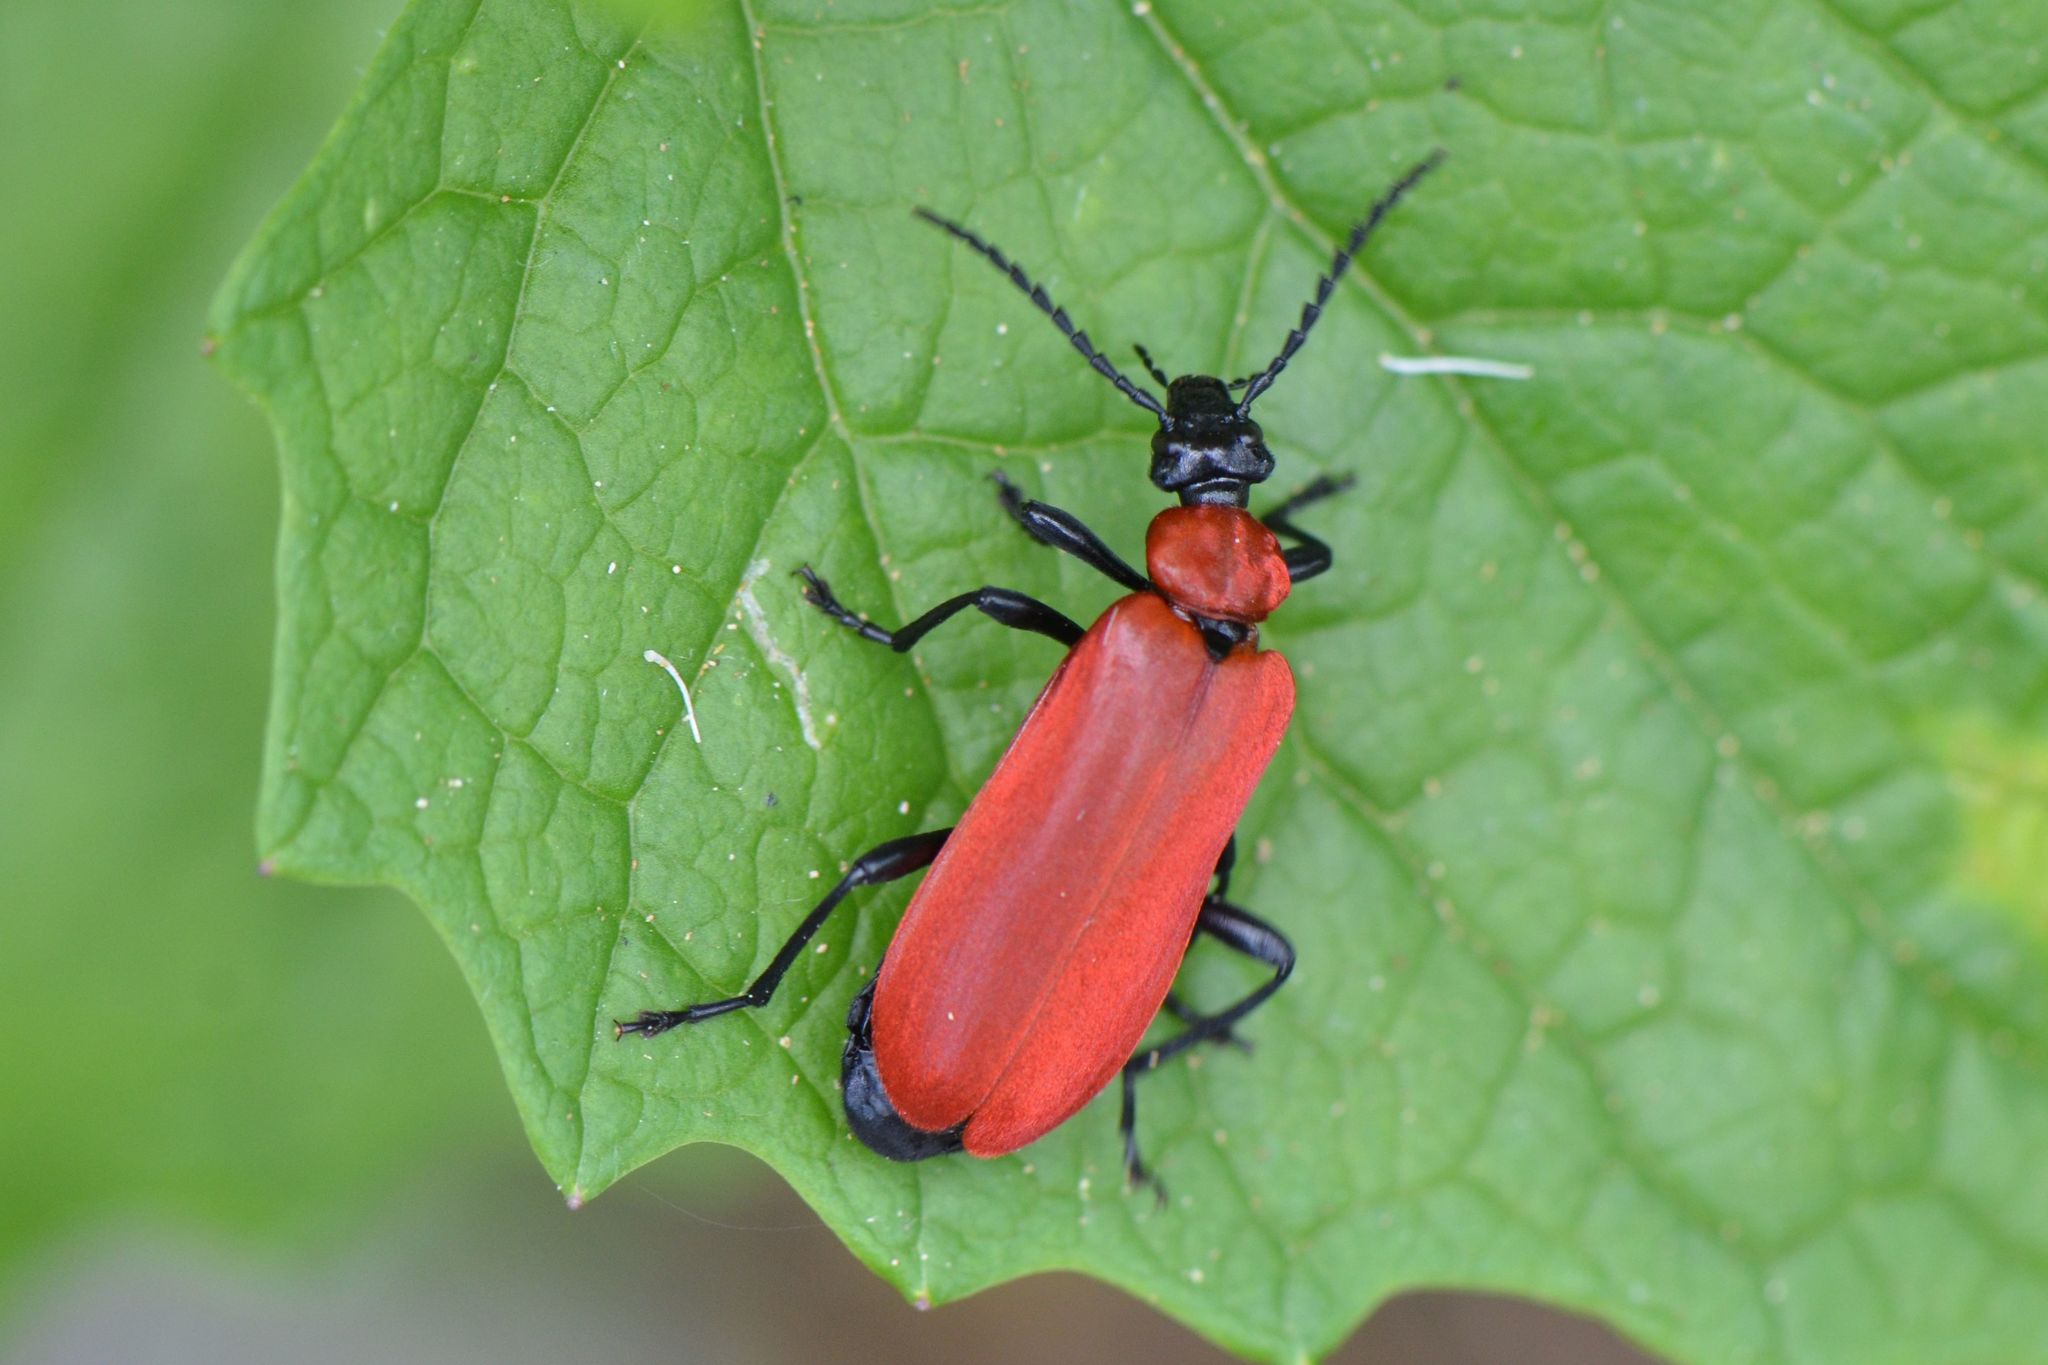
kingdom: Animalia
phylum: Arthropoda
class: Insecta
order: Coleoptera
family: Pyrochroidae
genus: Pyrochroa
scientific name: Pyrochroa coccinea
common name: Black-headed cardinal beetle
